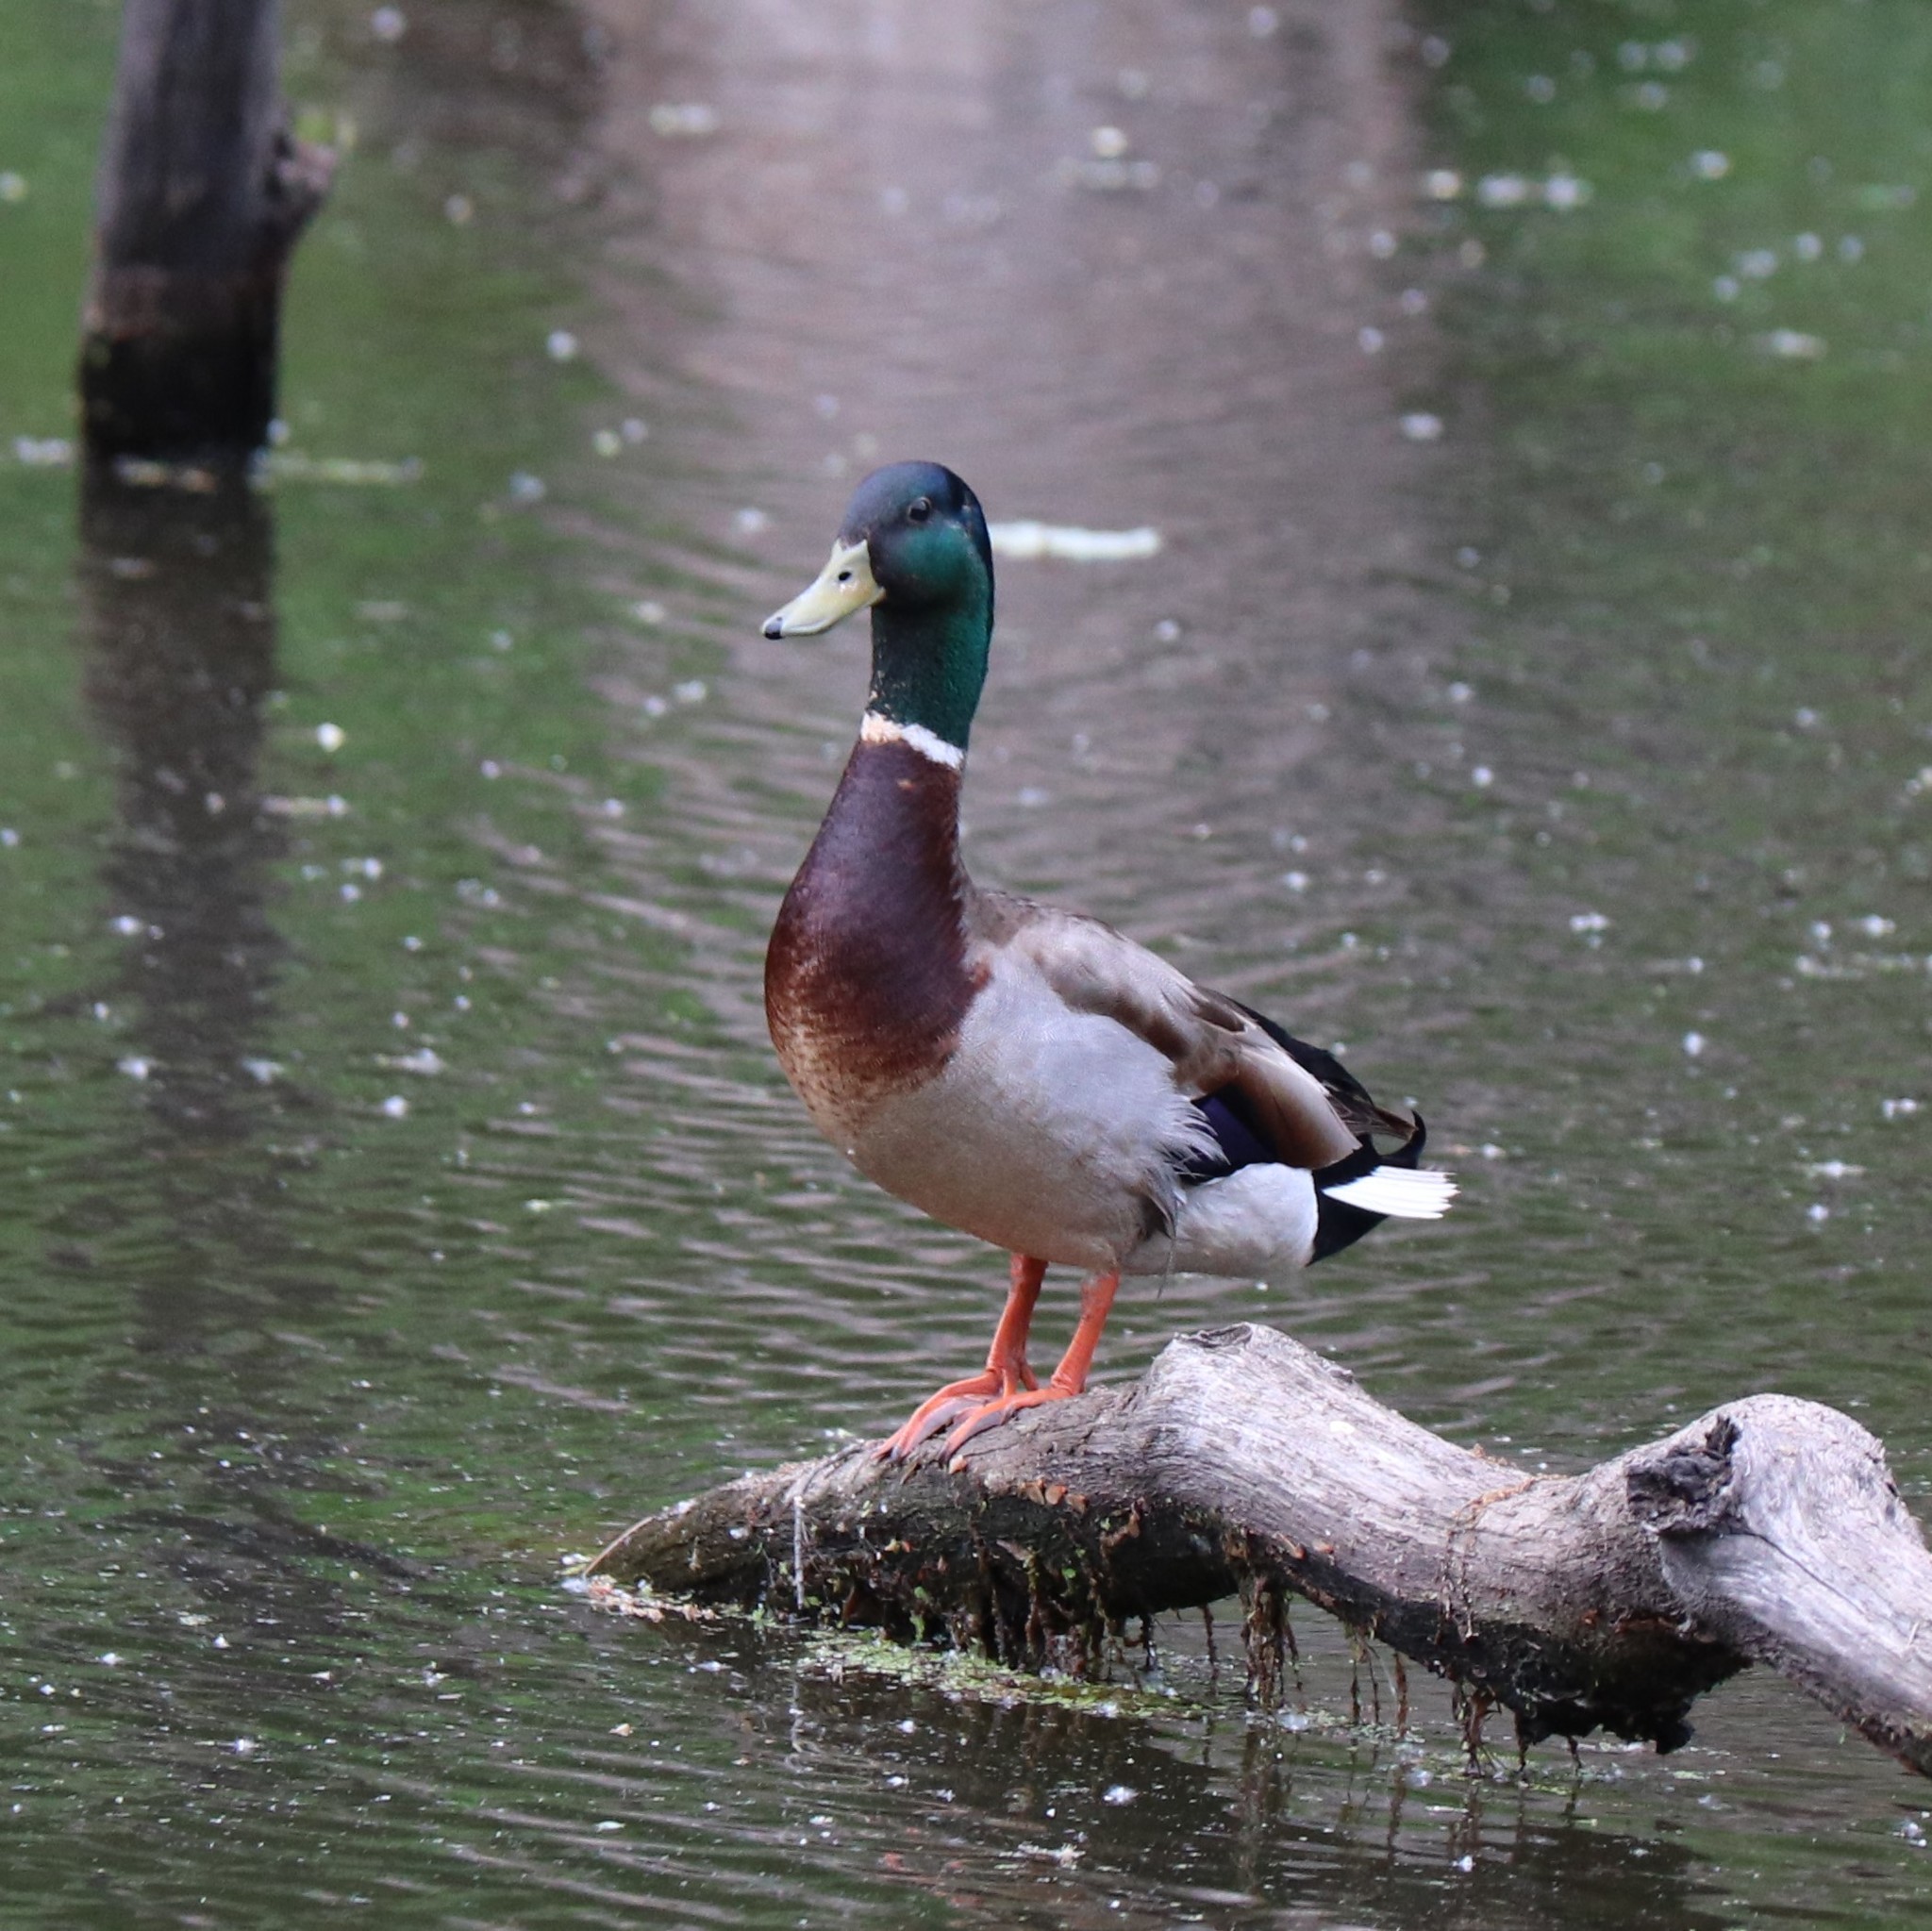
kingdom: Animalia
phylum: Chordata
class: Aves
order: Anseriformes
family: Anatidae
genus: Anas
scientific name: Anas platyrhynchos
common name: Mallard
